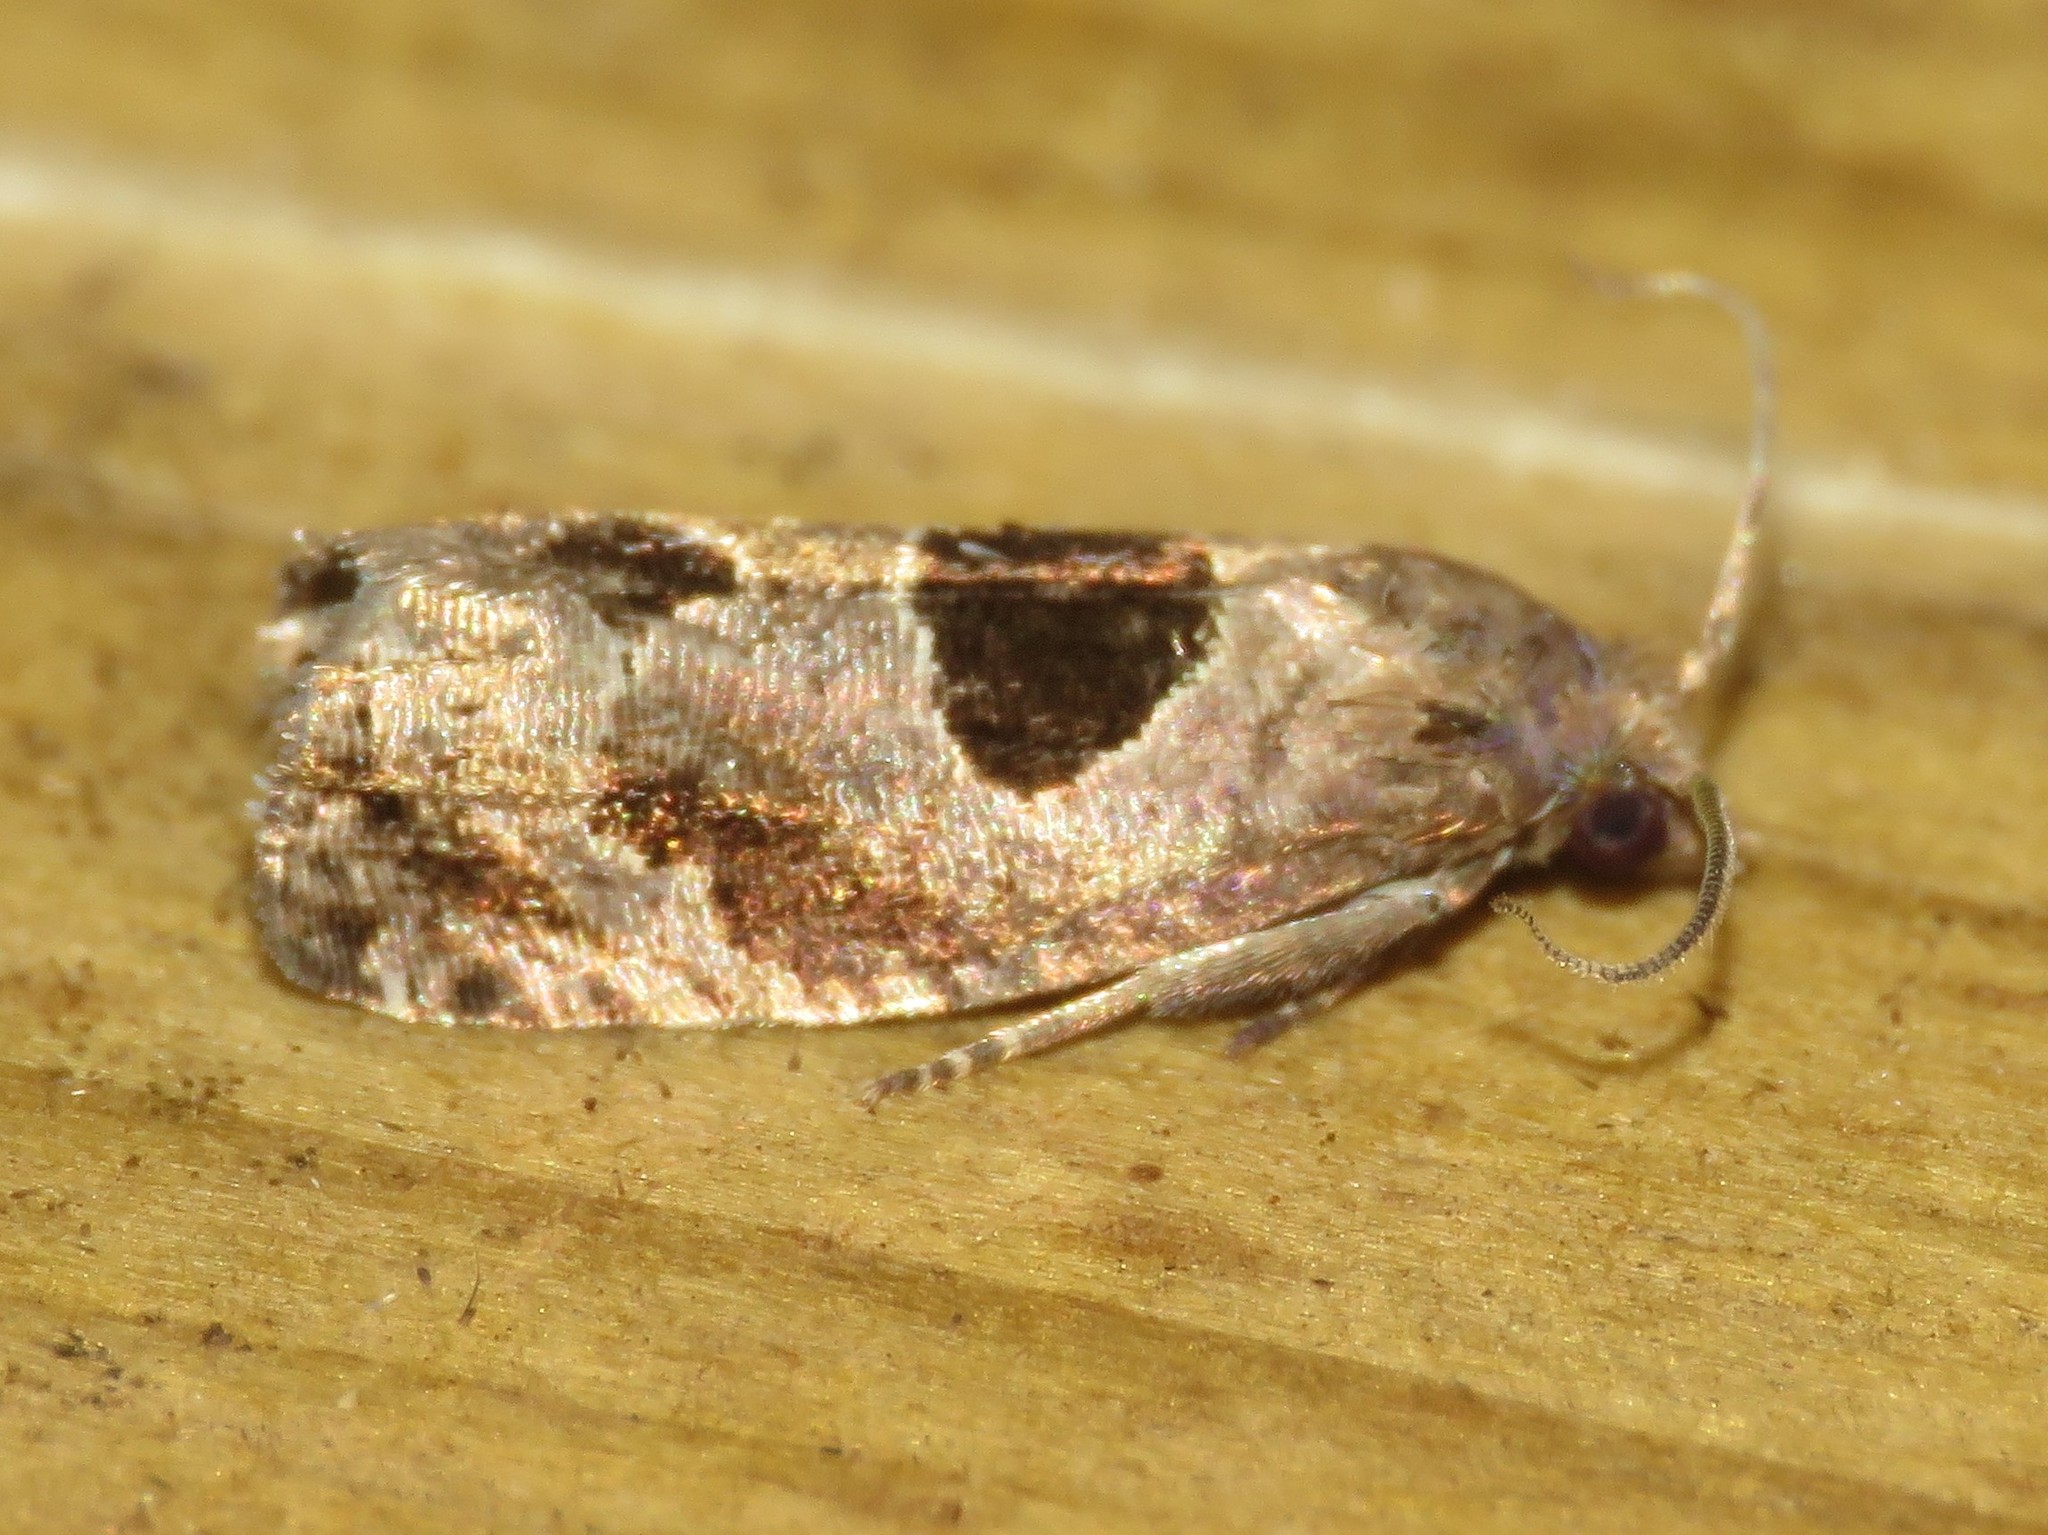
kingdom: Animalia
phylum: Arthropoda
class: Insecta
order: Lepidoptera
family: Tortricidae
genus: Epiblema
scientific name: Epiblema brightonana
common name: Brighton's epiblema moth
